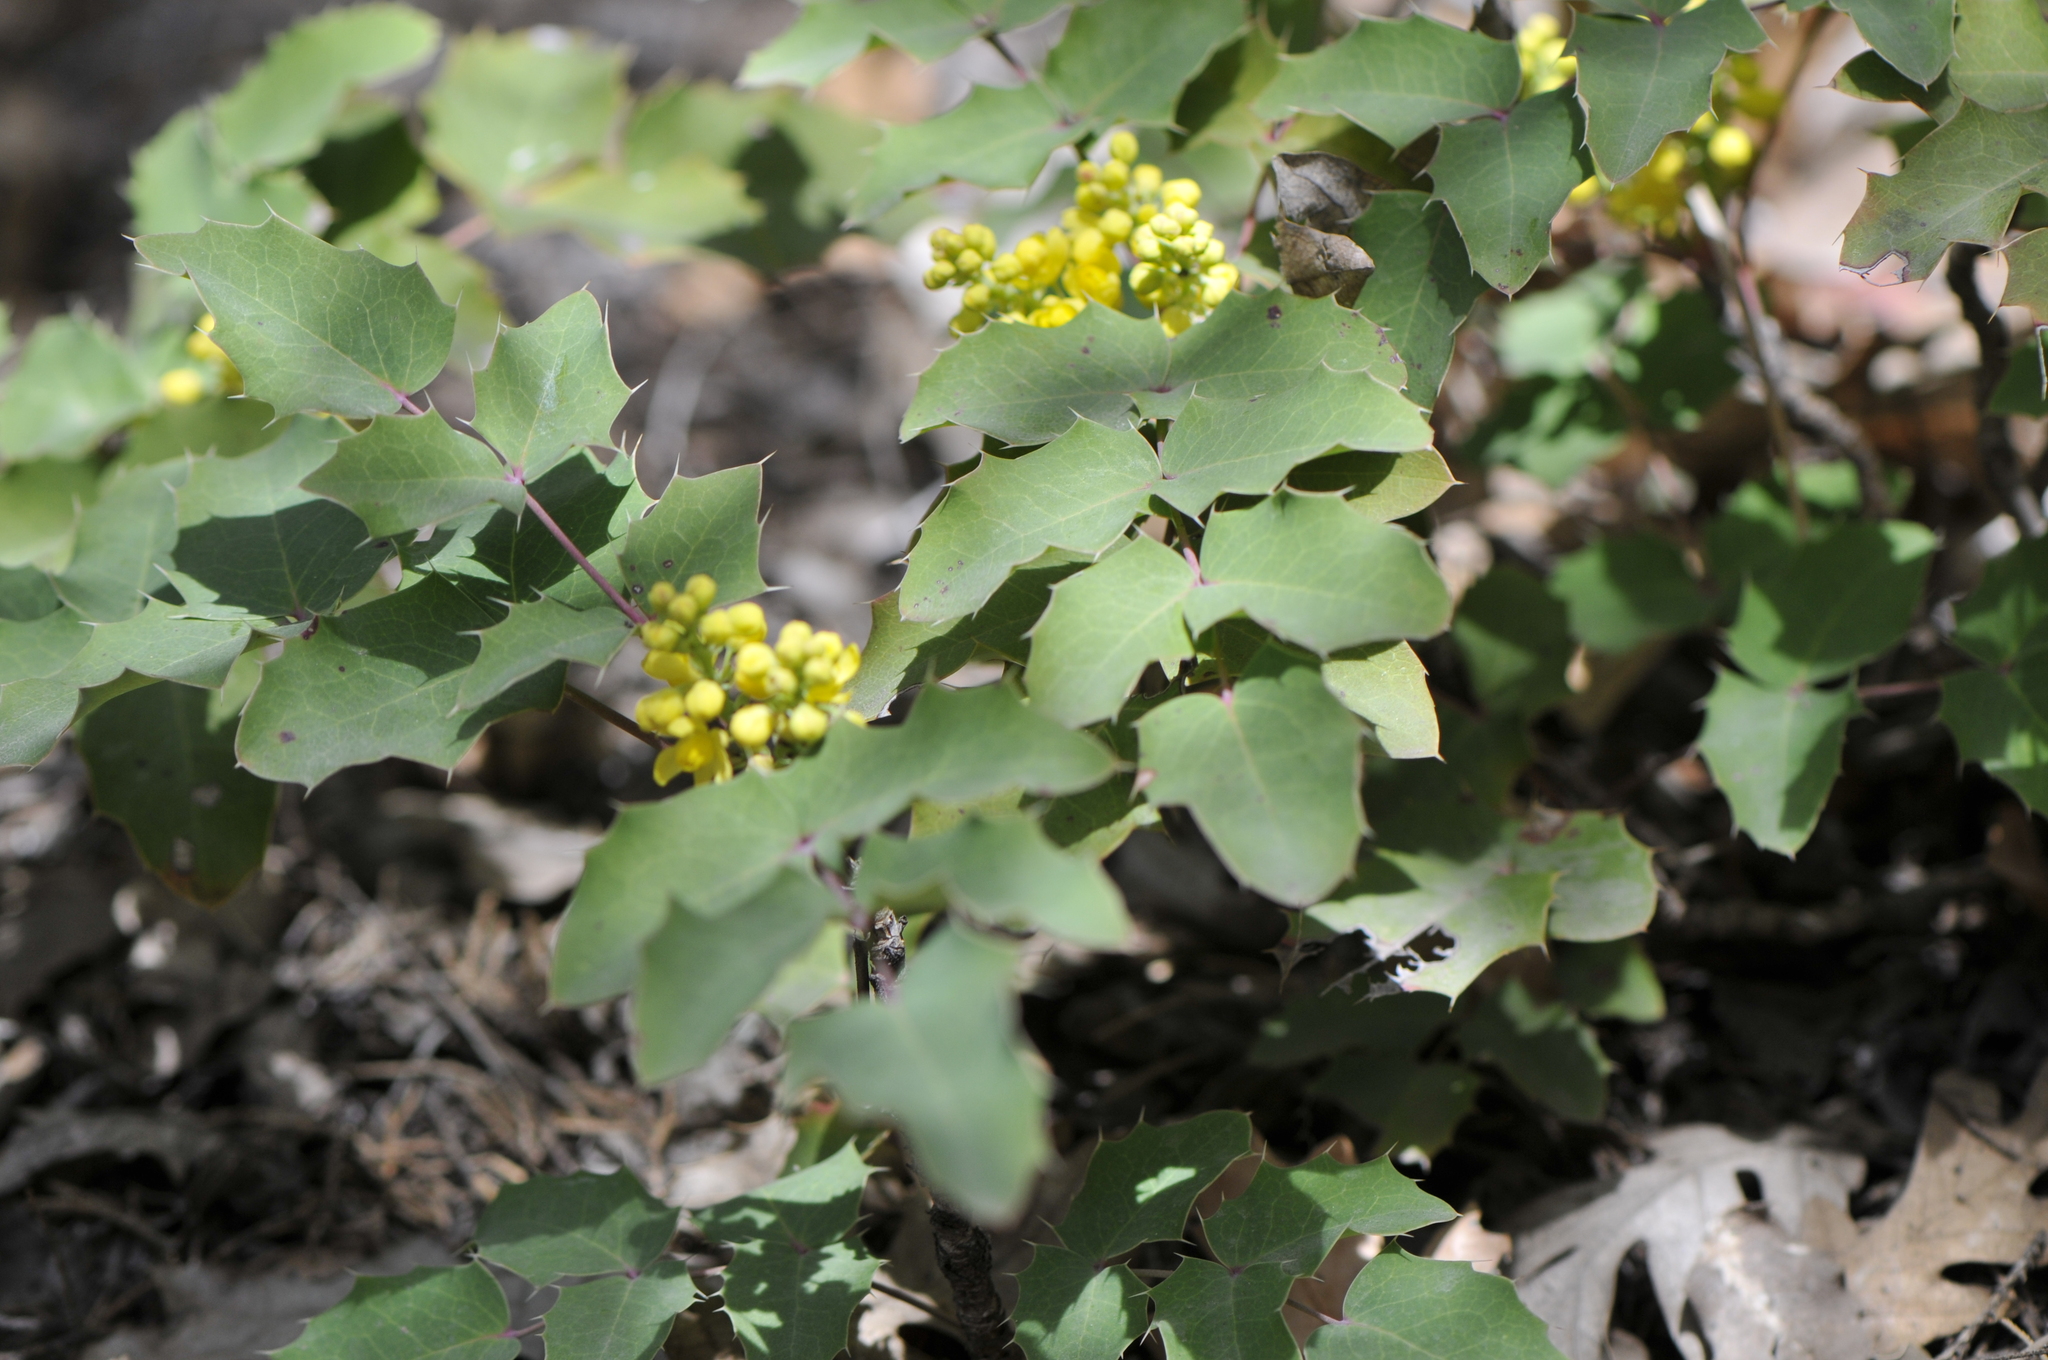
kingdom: Plantae
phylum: Tracheophyta
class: Magnoliopsida
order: Ranunculales
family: Berberidaceae
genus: Mahonia
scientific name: Mahonia repens
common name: Creeping oregon-grape
